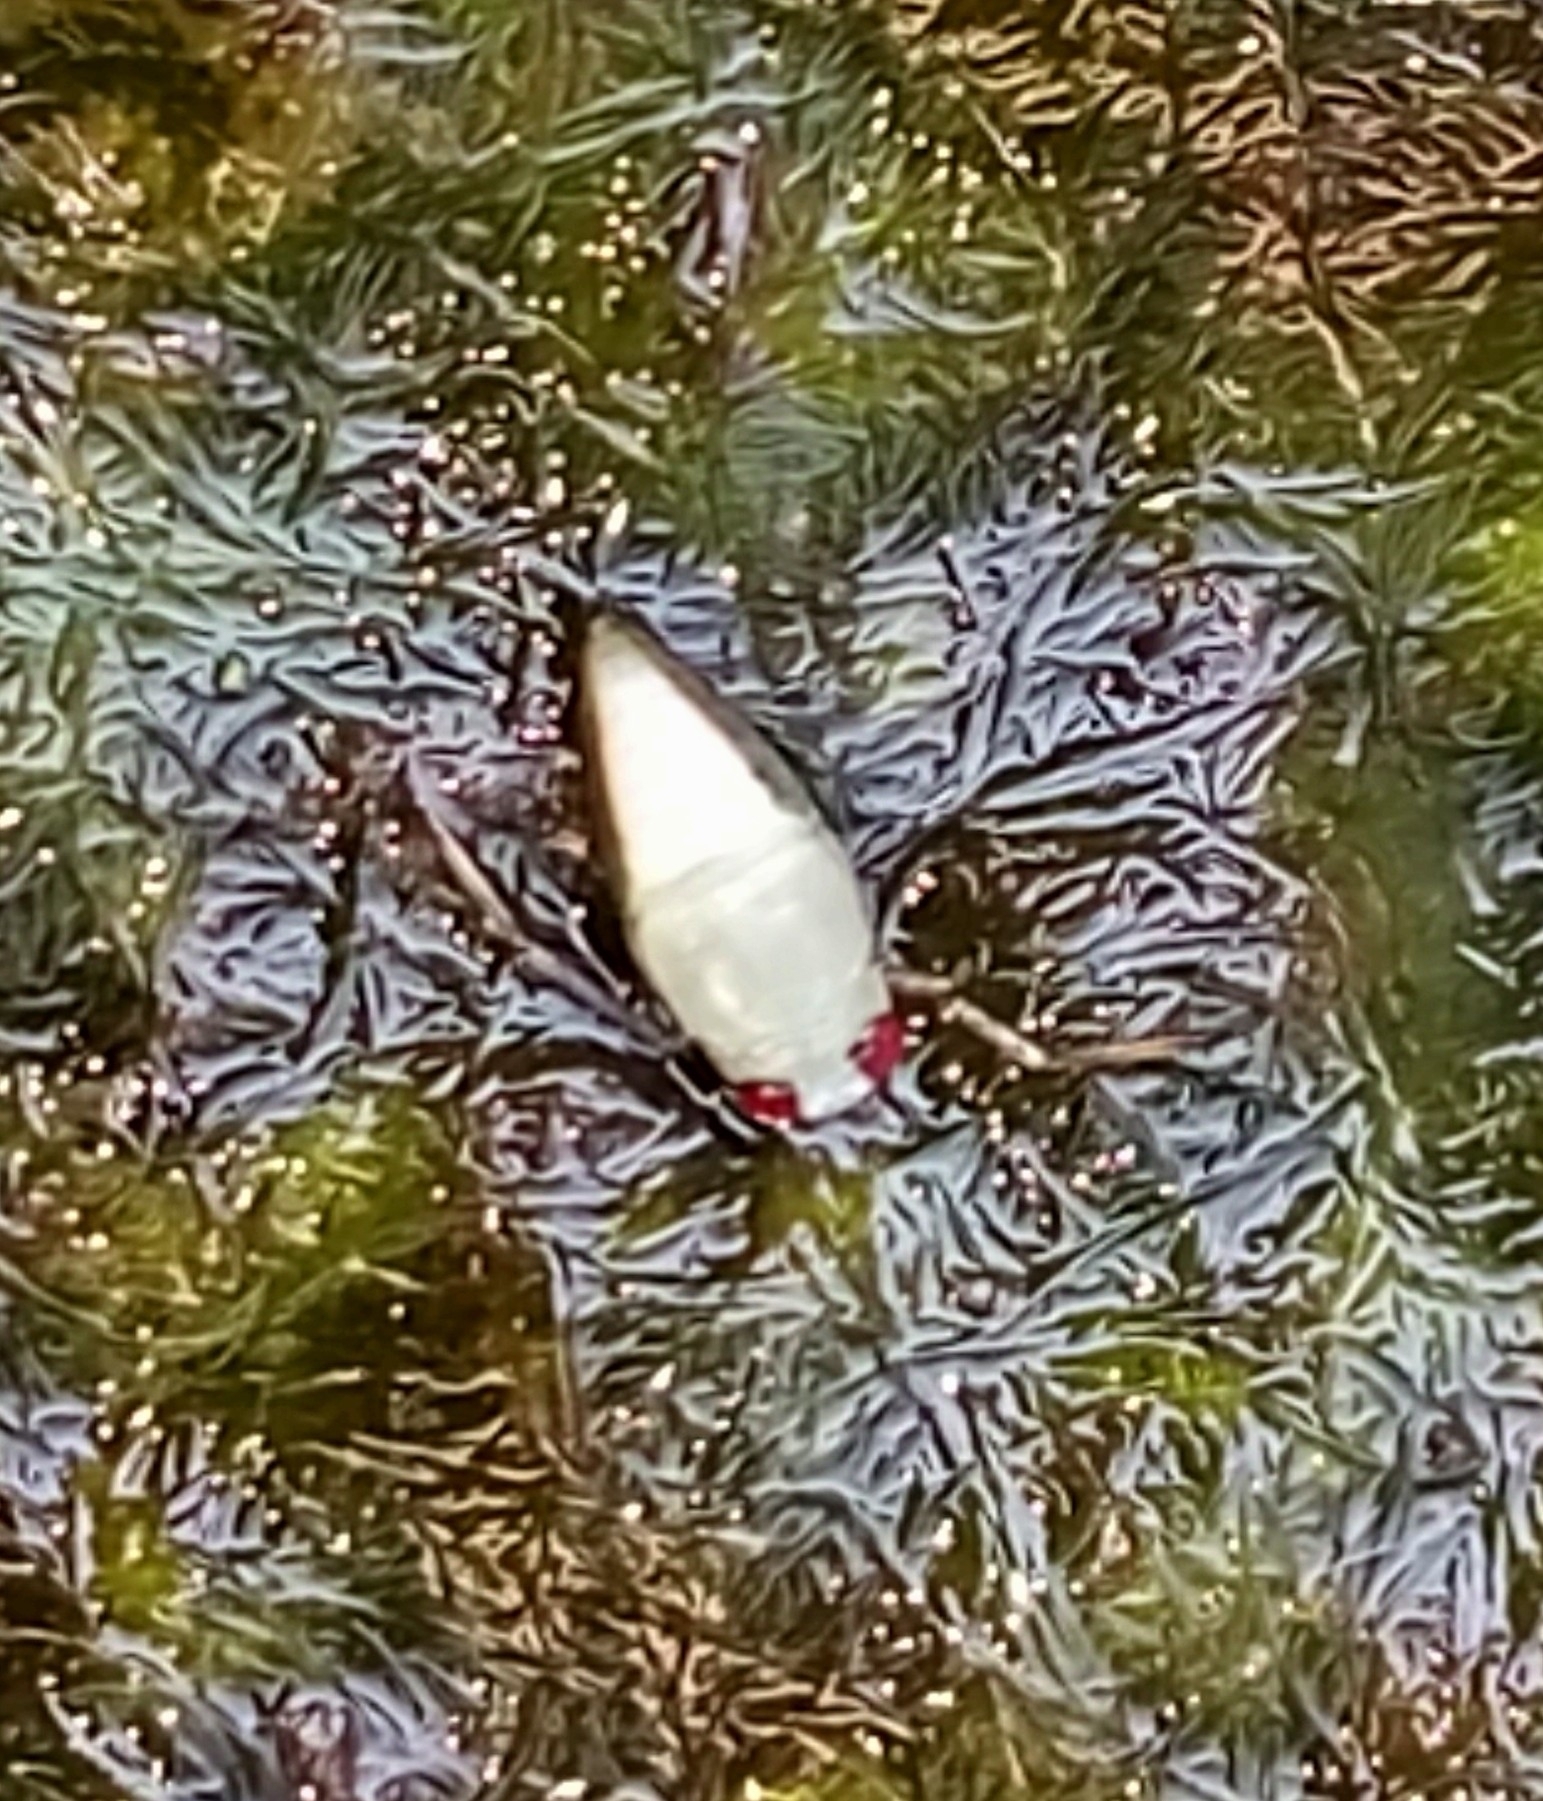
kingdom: Animalia
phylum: Arthropoda
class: Insecta
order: Hemiptera
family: Notonectidae
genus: Notonecta
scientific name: Notonecta
